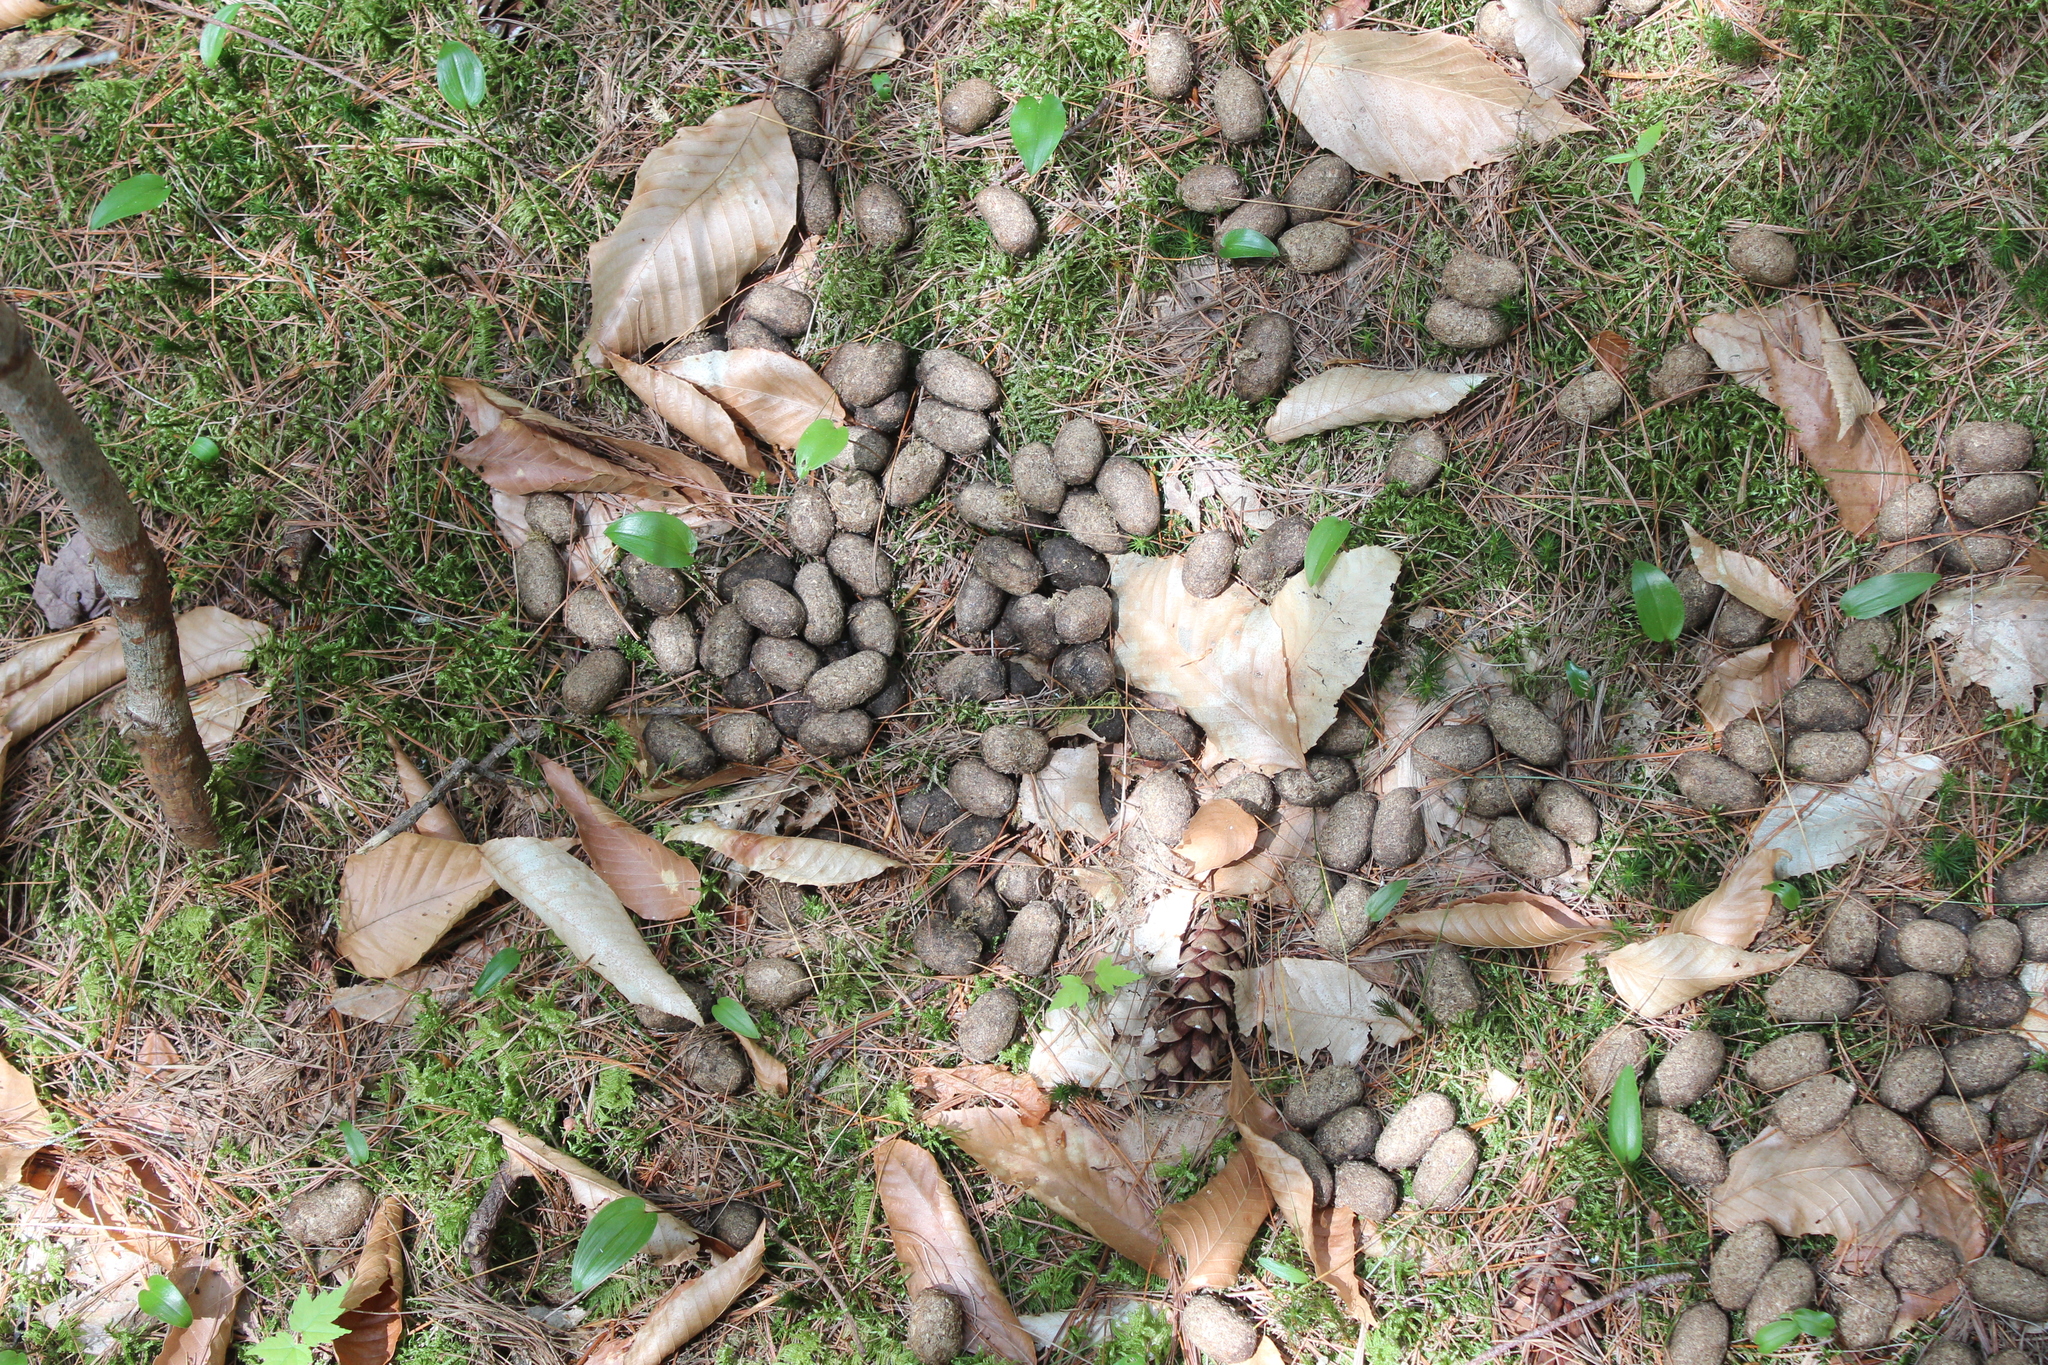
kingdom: Animalia
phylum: Chordata
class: Mammalia
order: Artiodactyla
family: Cervidae
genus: Alces
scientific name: Alces alces
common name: Moose
